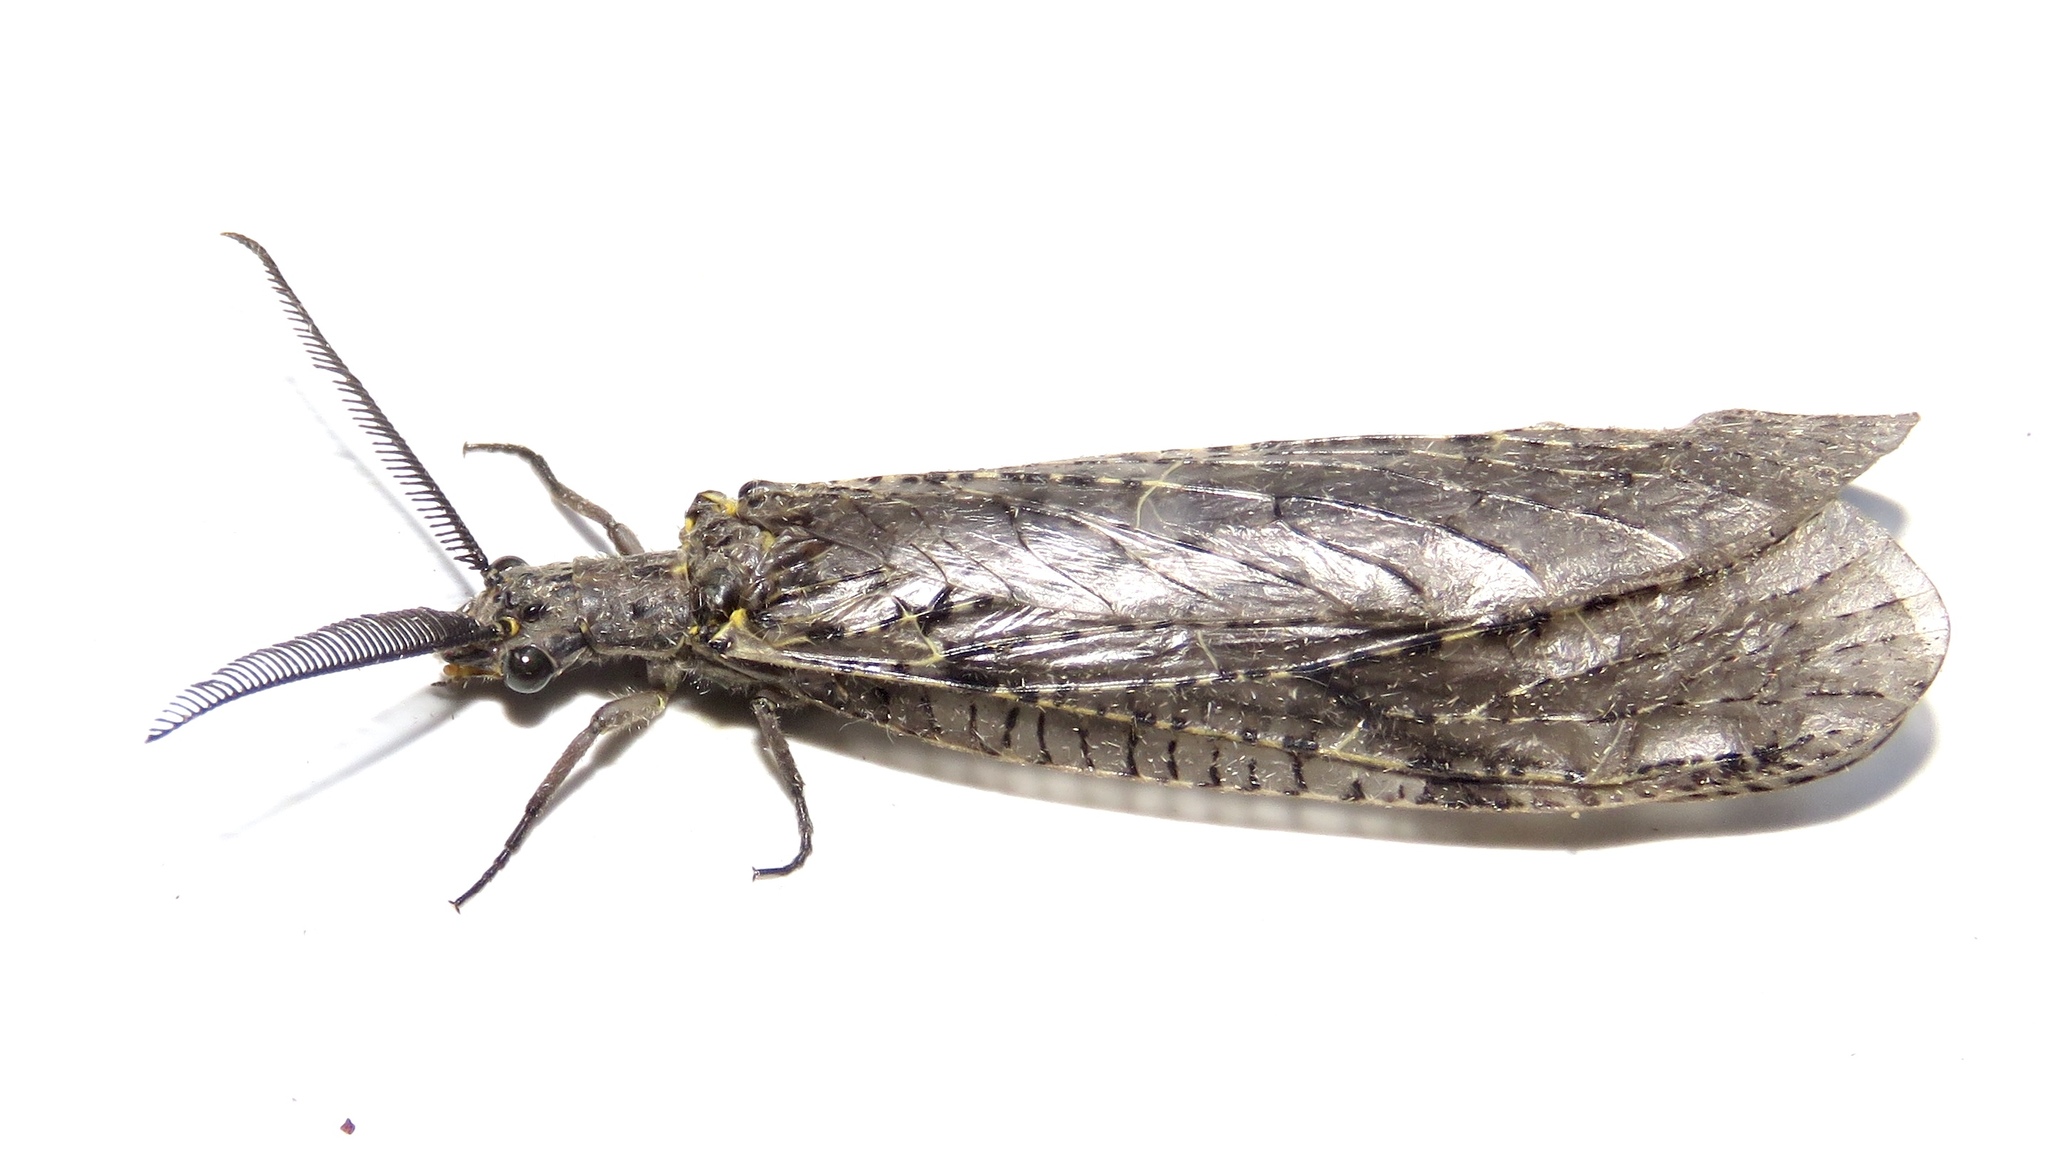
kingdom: Animalia
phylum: Arthropoda
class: Insecta
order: Megaloptera
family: Corydalidae
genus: Chauliodes
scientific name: Chauliodes rastricornis
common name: Spring fishfly
